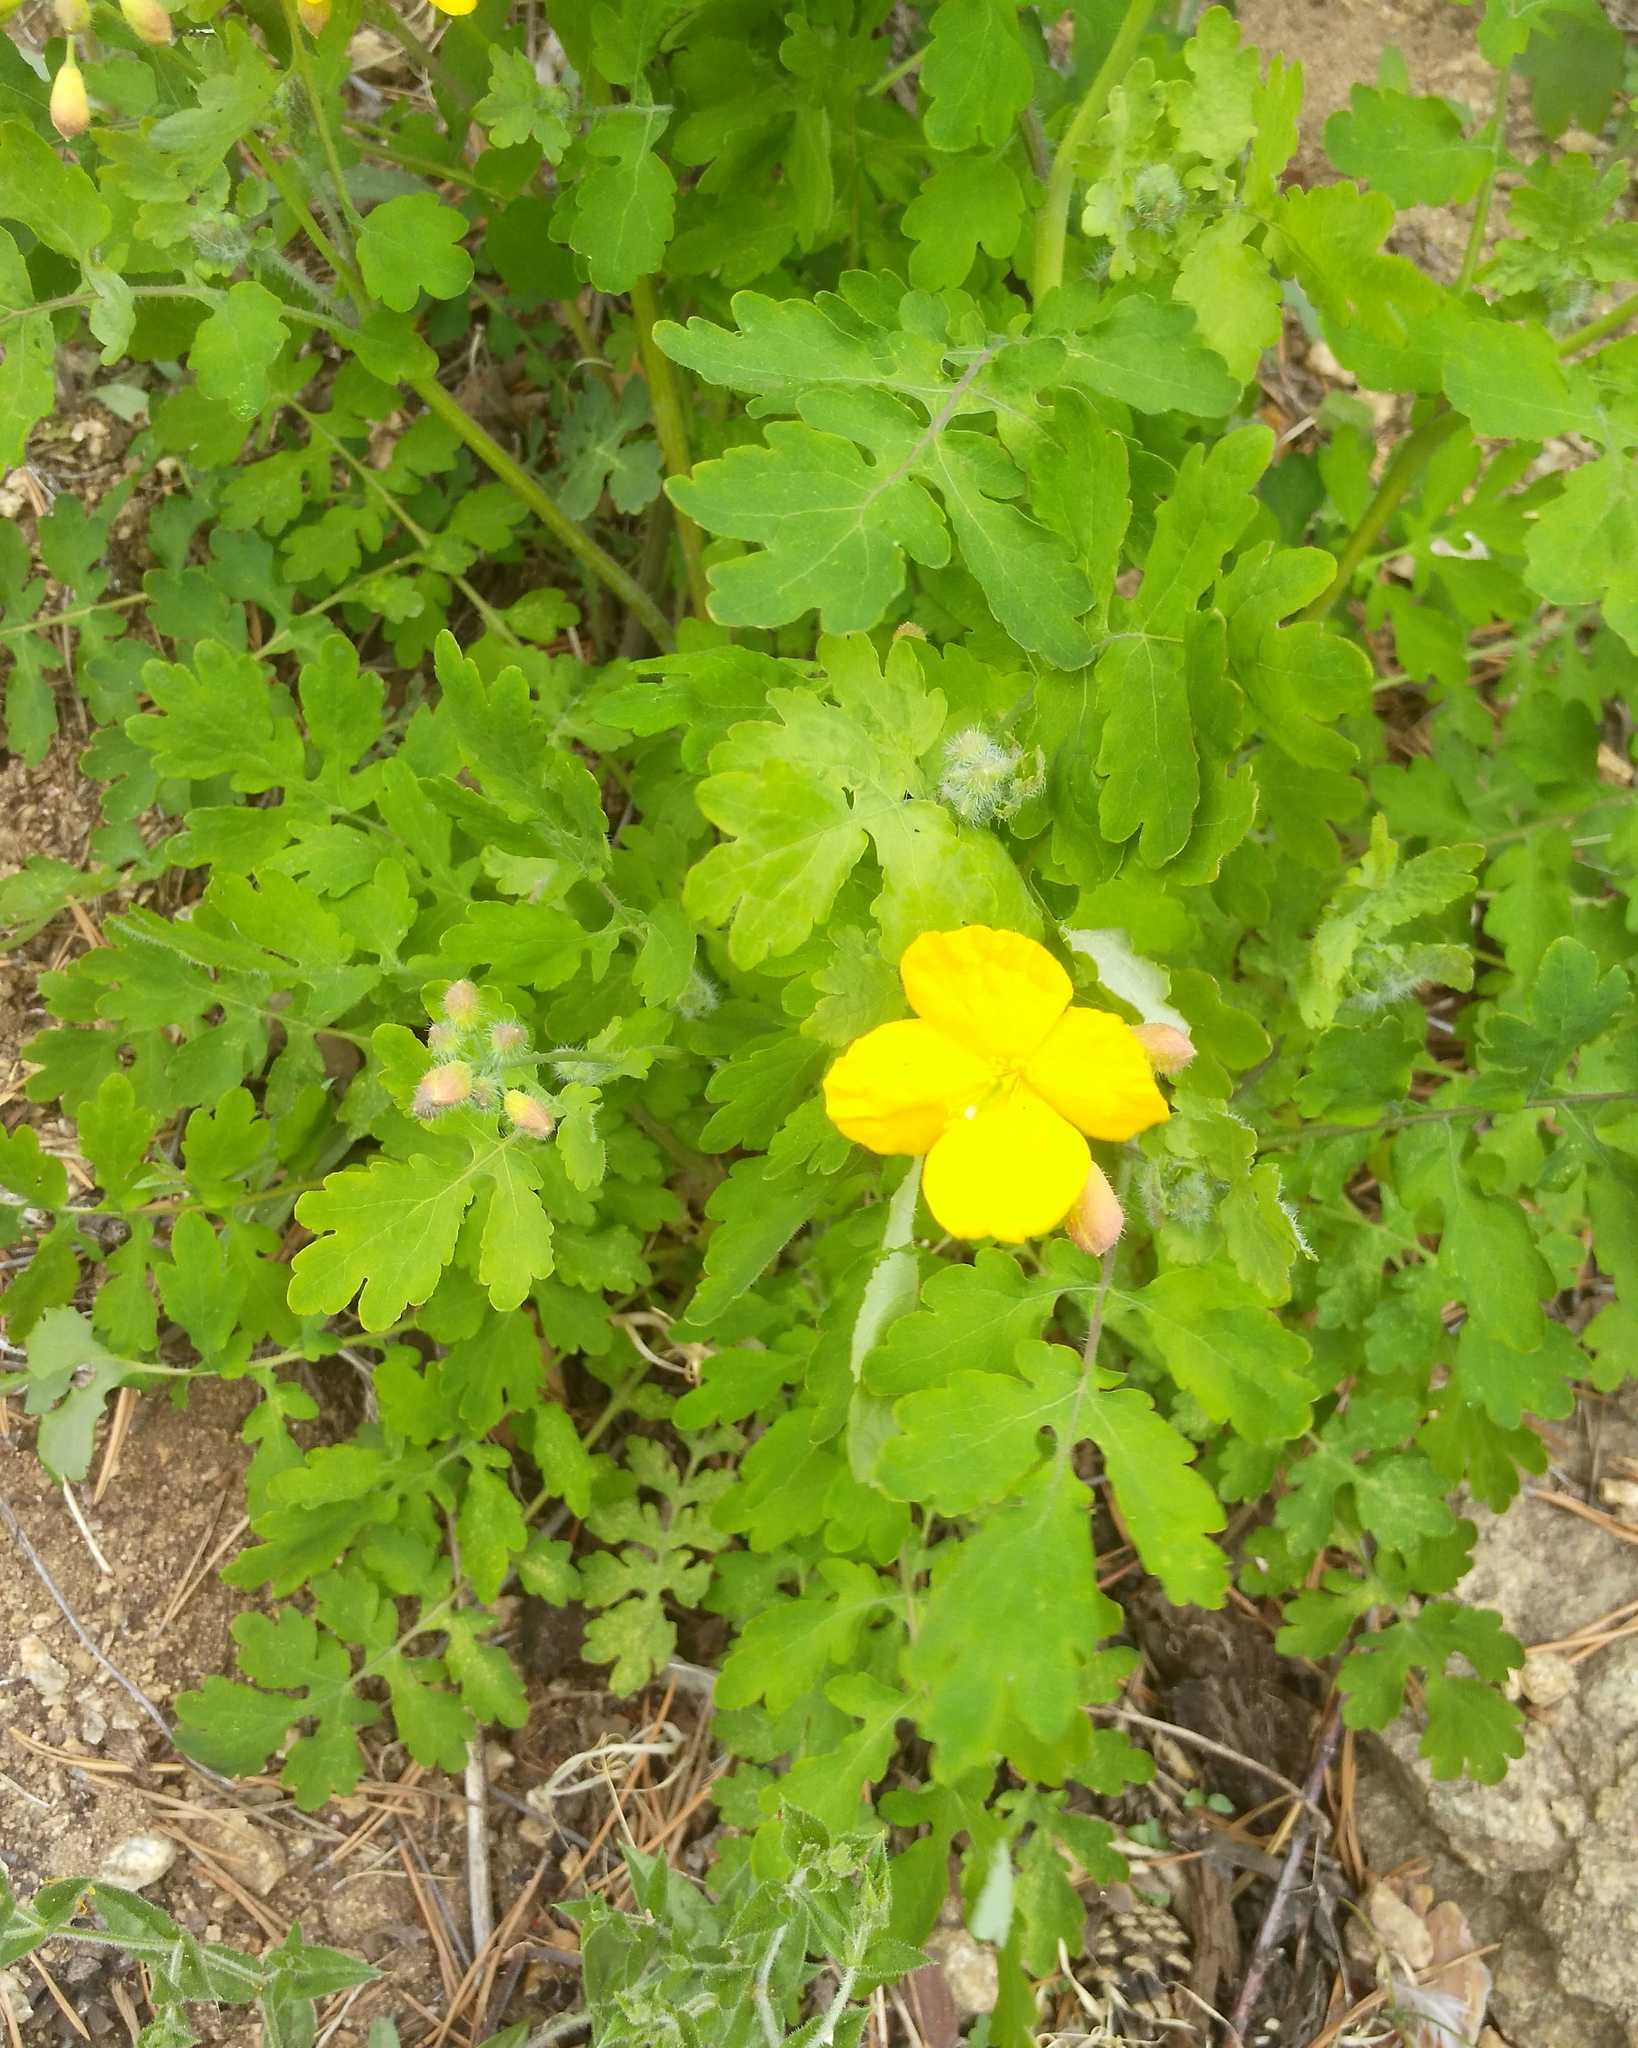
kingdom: Plantae
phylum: Tracheophyta
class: Magnoliopsida
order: Ranunculales
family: Papaveraceae
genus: Chelidonium
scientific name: Chelidonium majus
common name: Greater celandine
